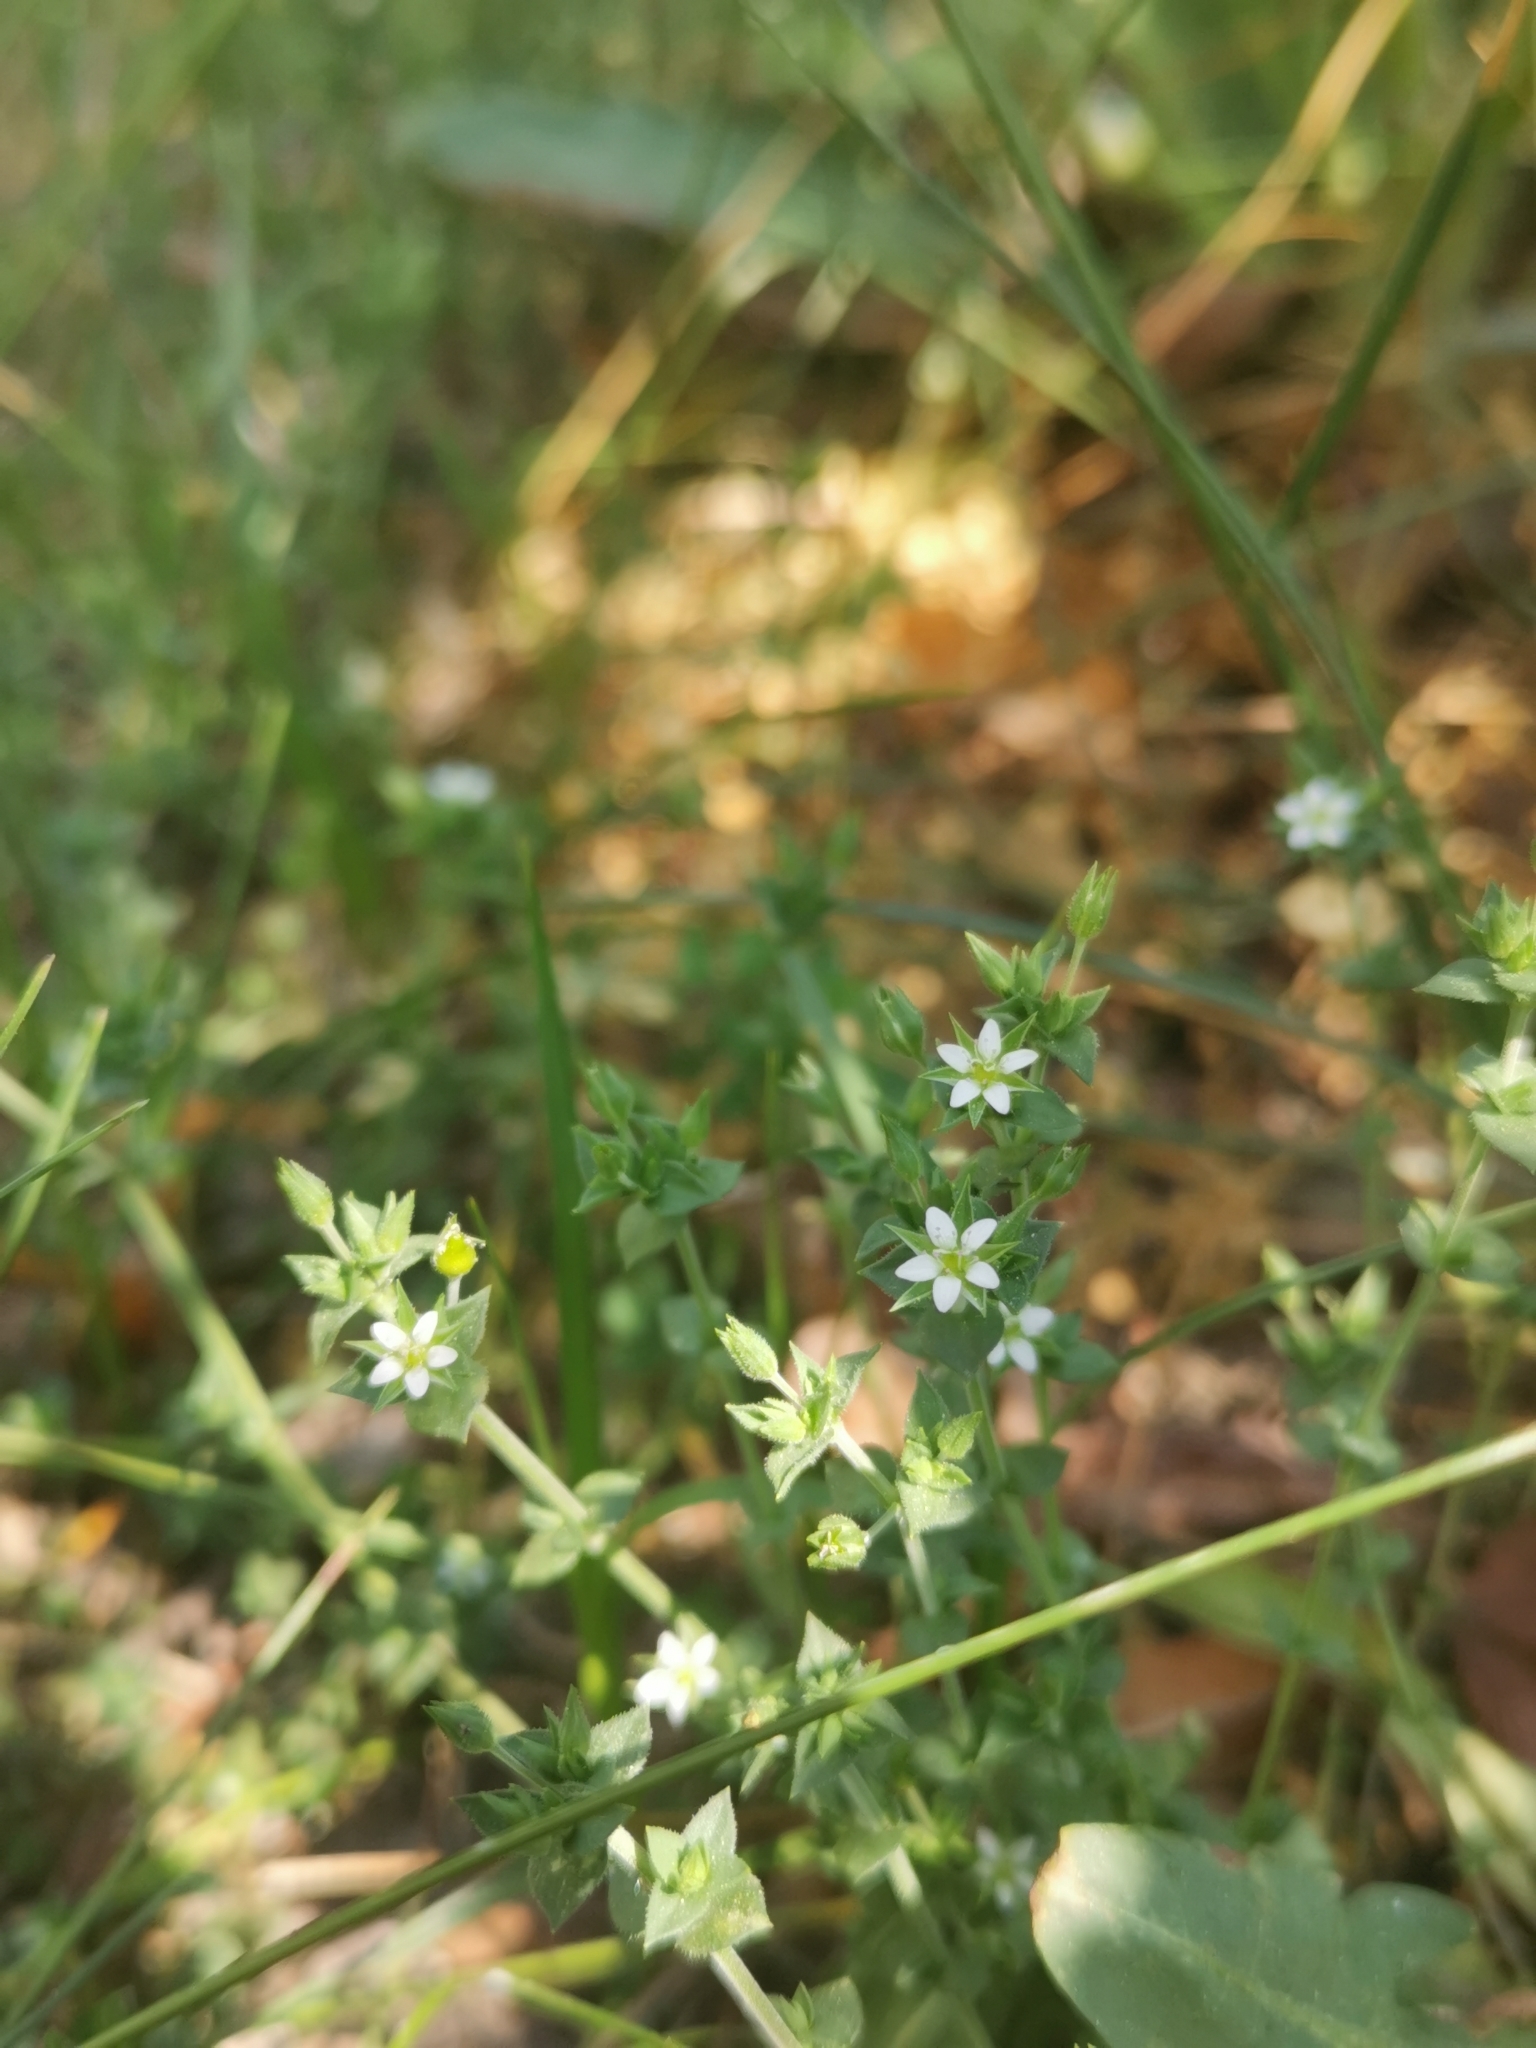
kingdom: Plantae
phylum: Tracheophyta
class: Magnoliopsida
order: Caryophyllales
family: Caryophyllaceae
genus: Arenaria
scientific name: Arenaria serpyllifolia
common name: Thyme-leaved sandwort
